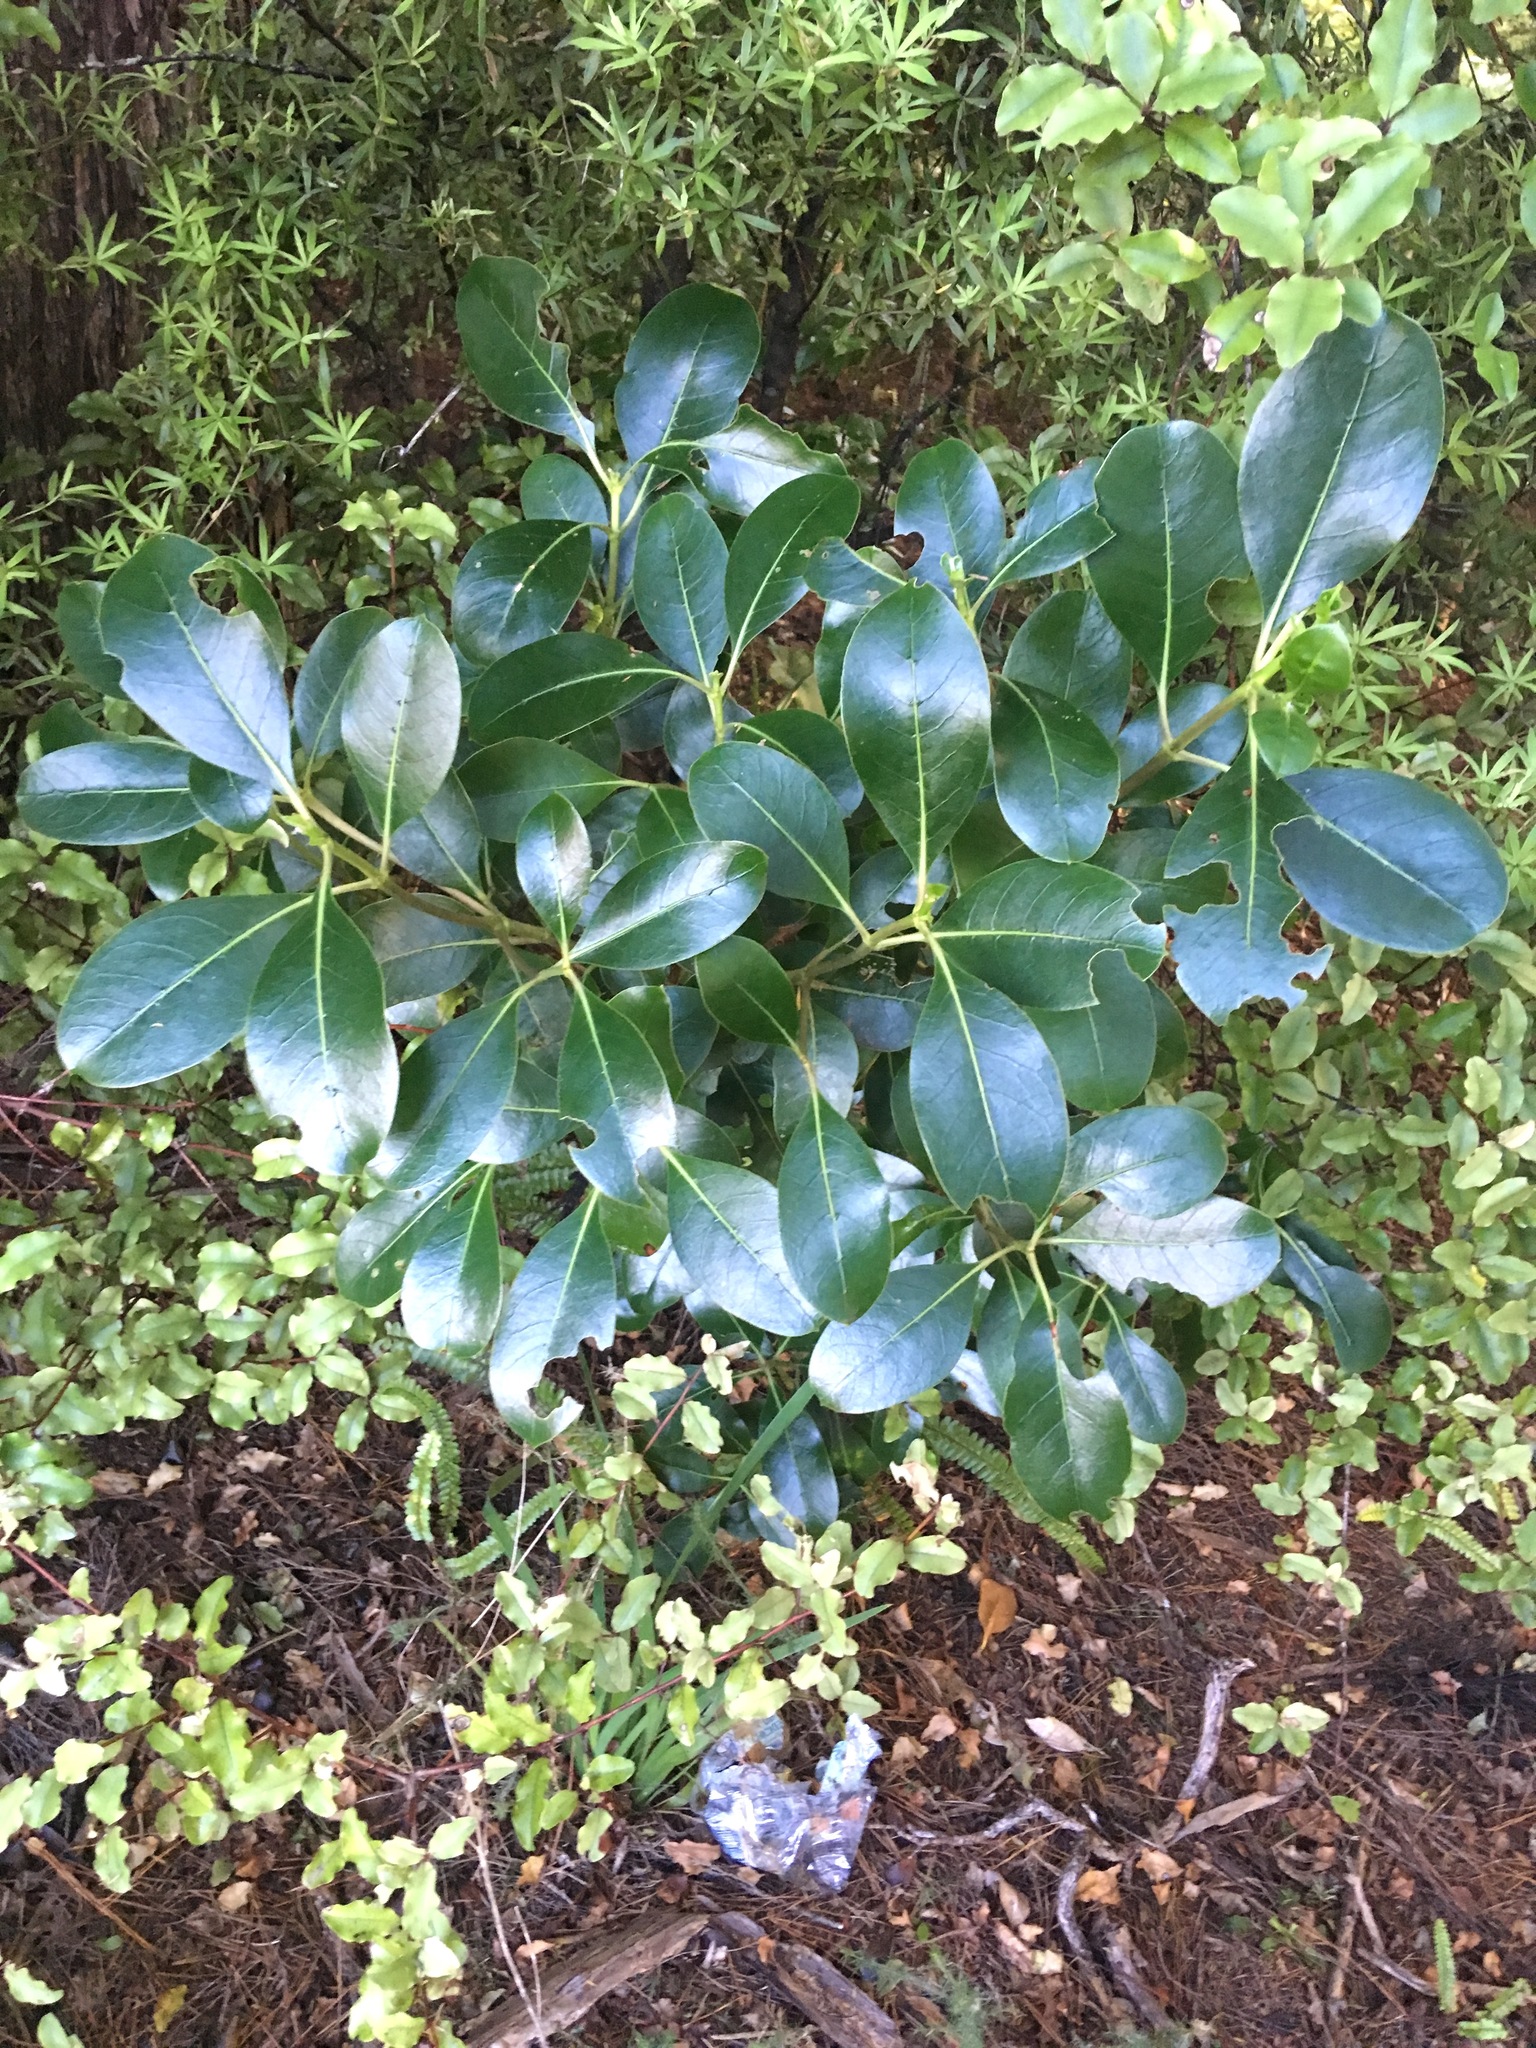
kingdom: Plantae
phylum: Tracheophyta
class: Magnoliopsida
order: Gentianales
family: Rubiaceae
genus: Coprosma
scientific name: Coprosma lucida
